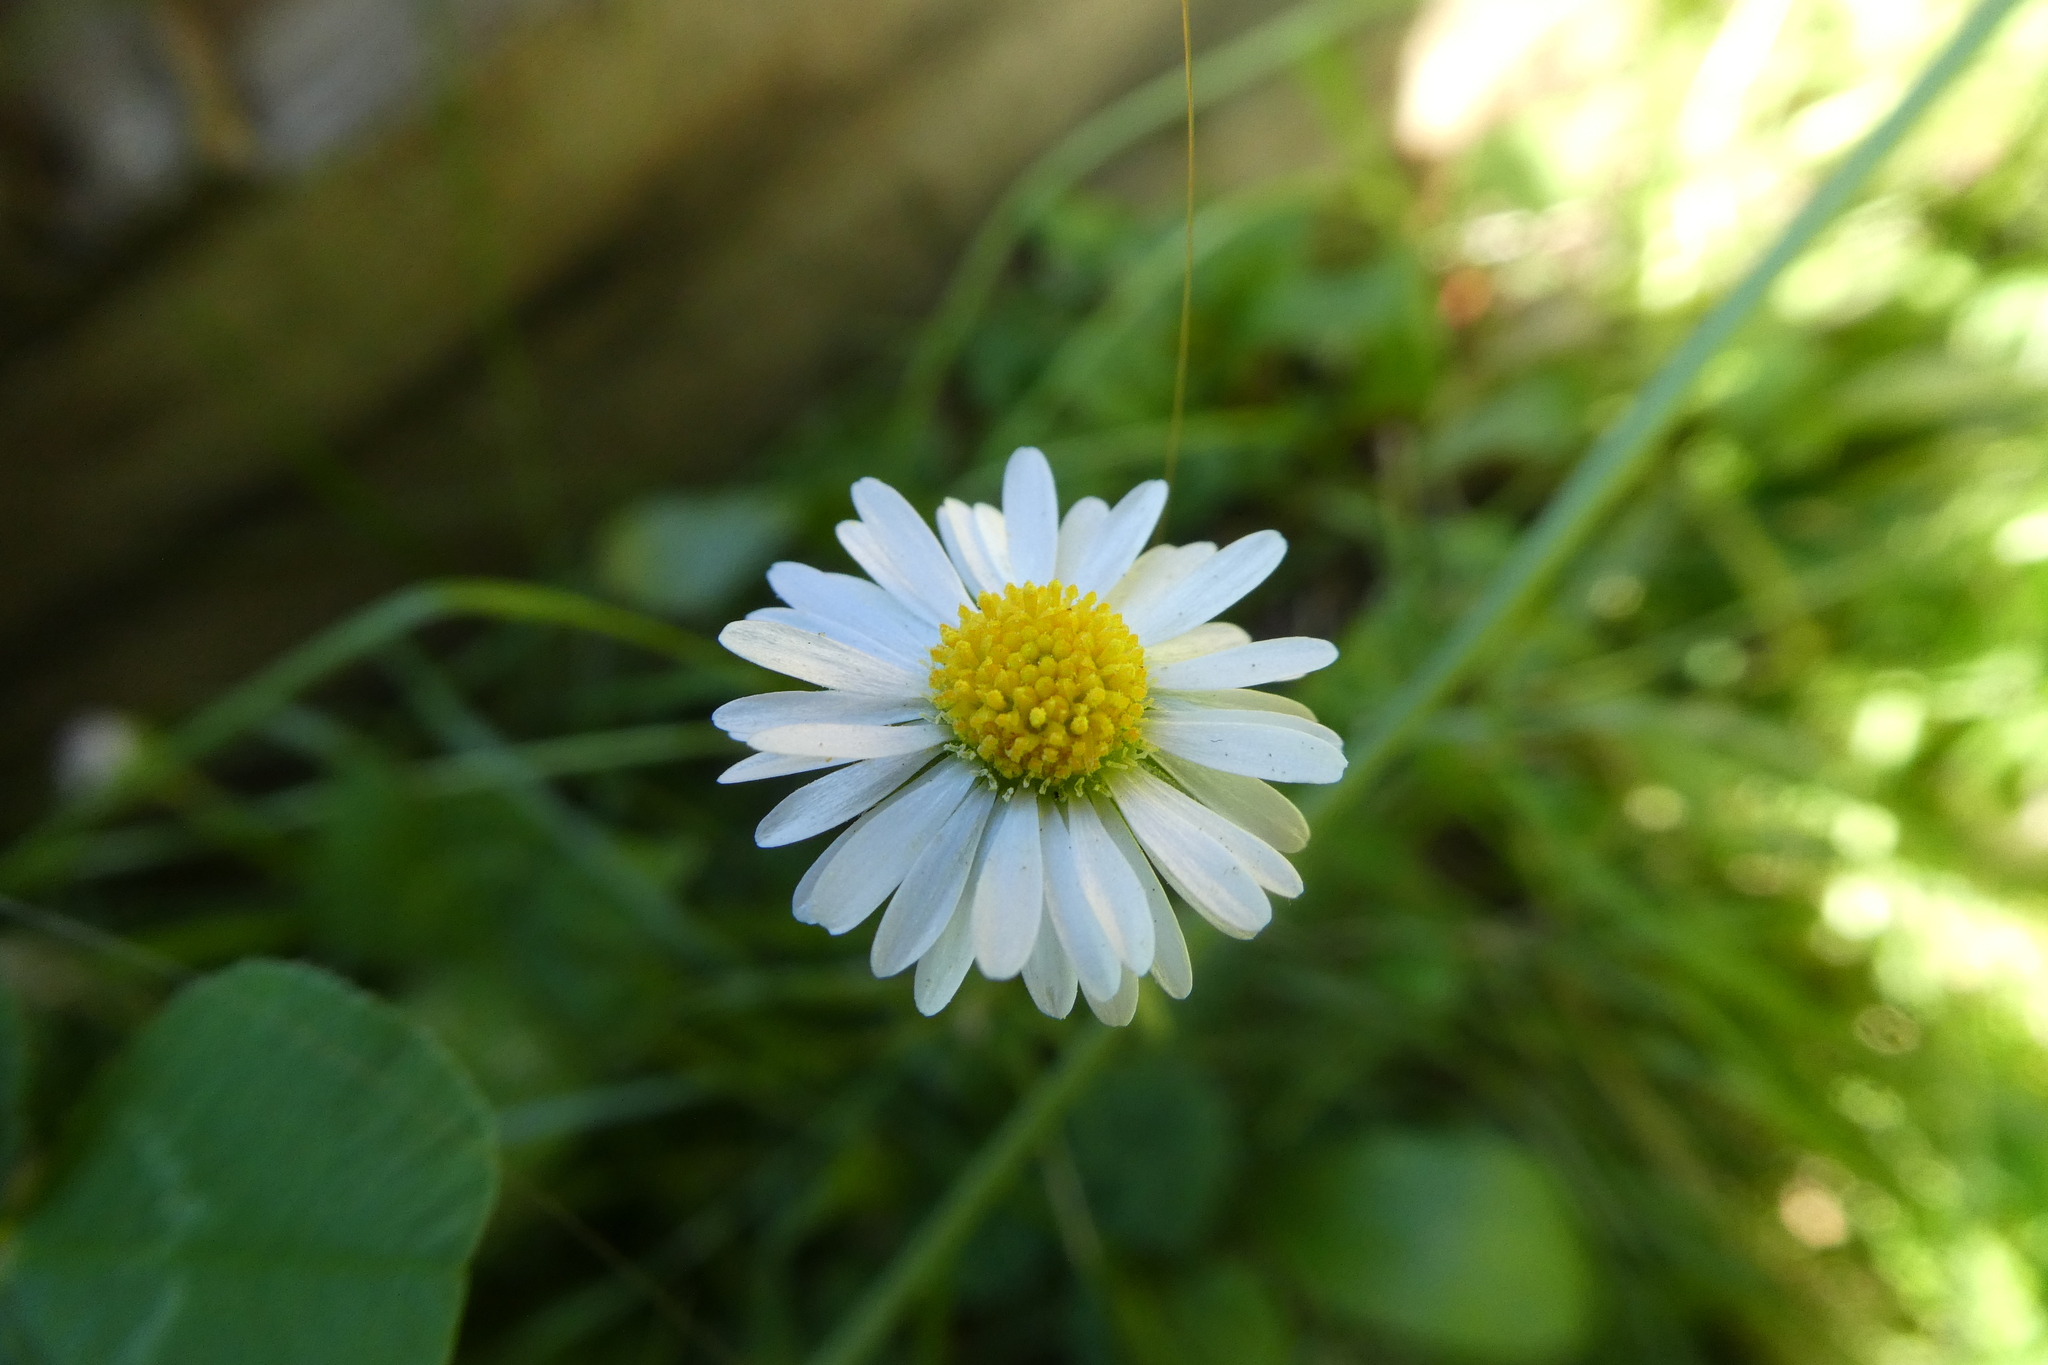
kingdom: Plantae
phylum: Tracheophyta
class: Magnoliopsida
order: Asterales
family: Asteraceae
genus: Bellis
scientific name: Bellis perennis
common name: Lawndaisy
